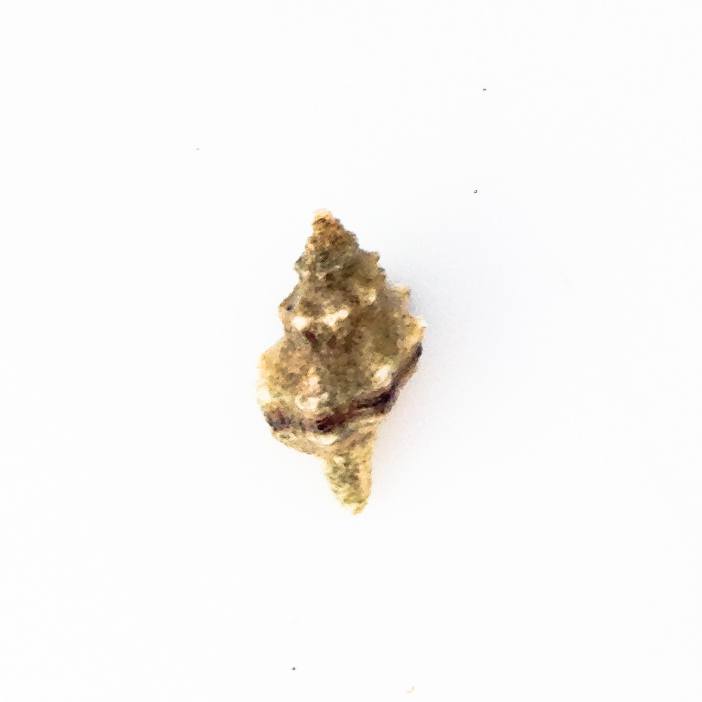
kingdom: Animalia
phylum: Mollusca
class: Gastropoda
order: Neogastropoda
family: Muricidae
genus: Urosalpinx
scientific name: Urosalpinx subangulata
